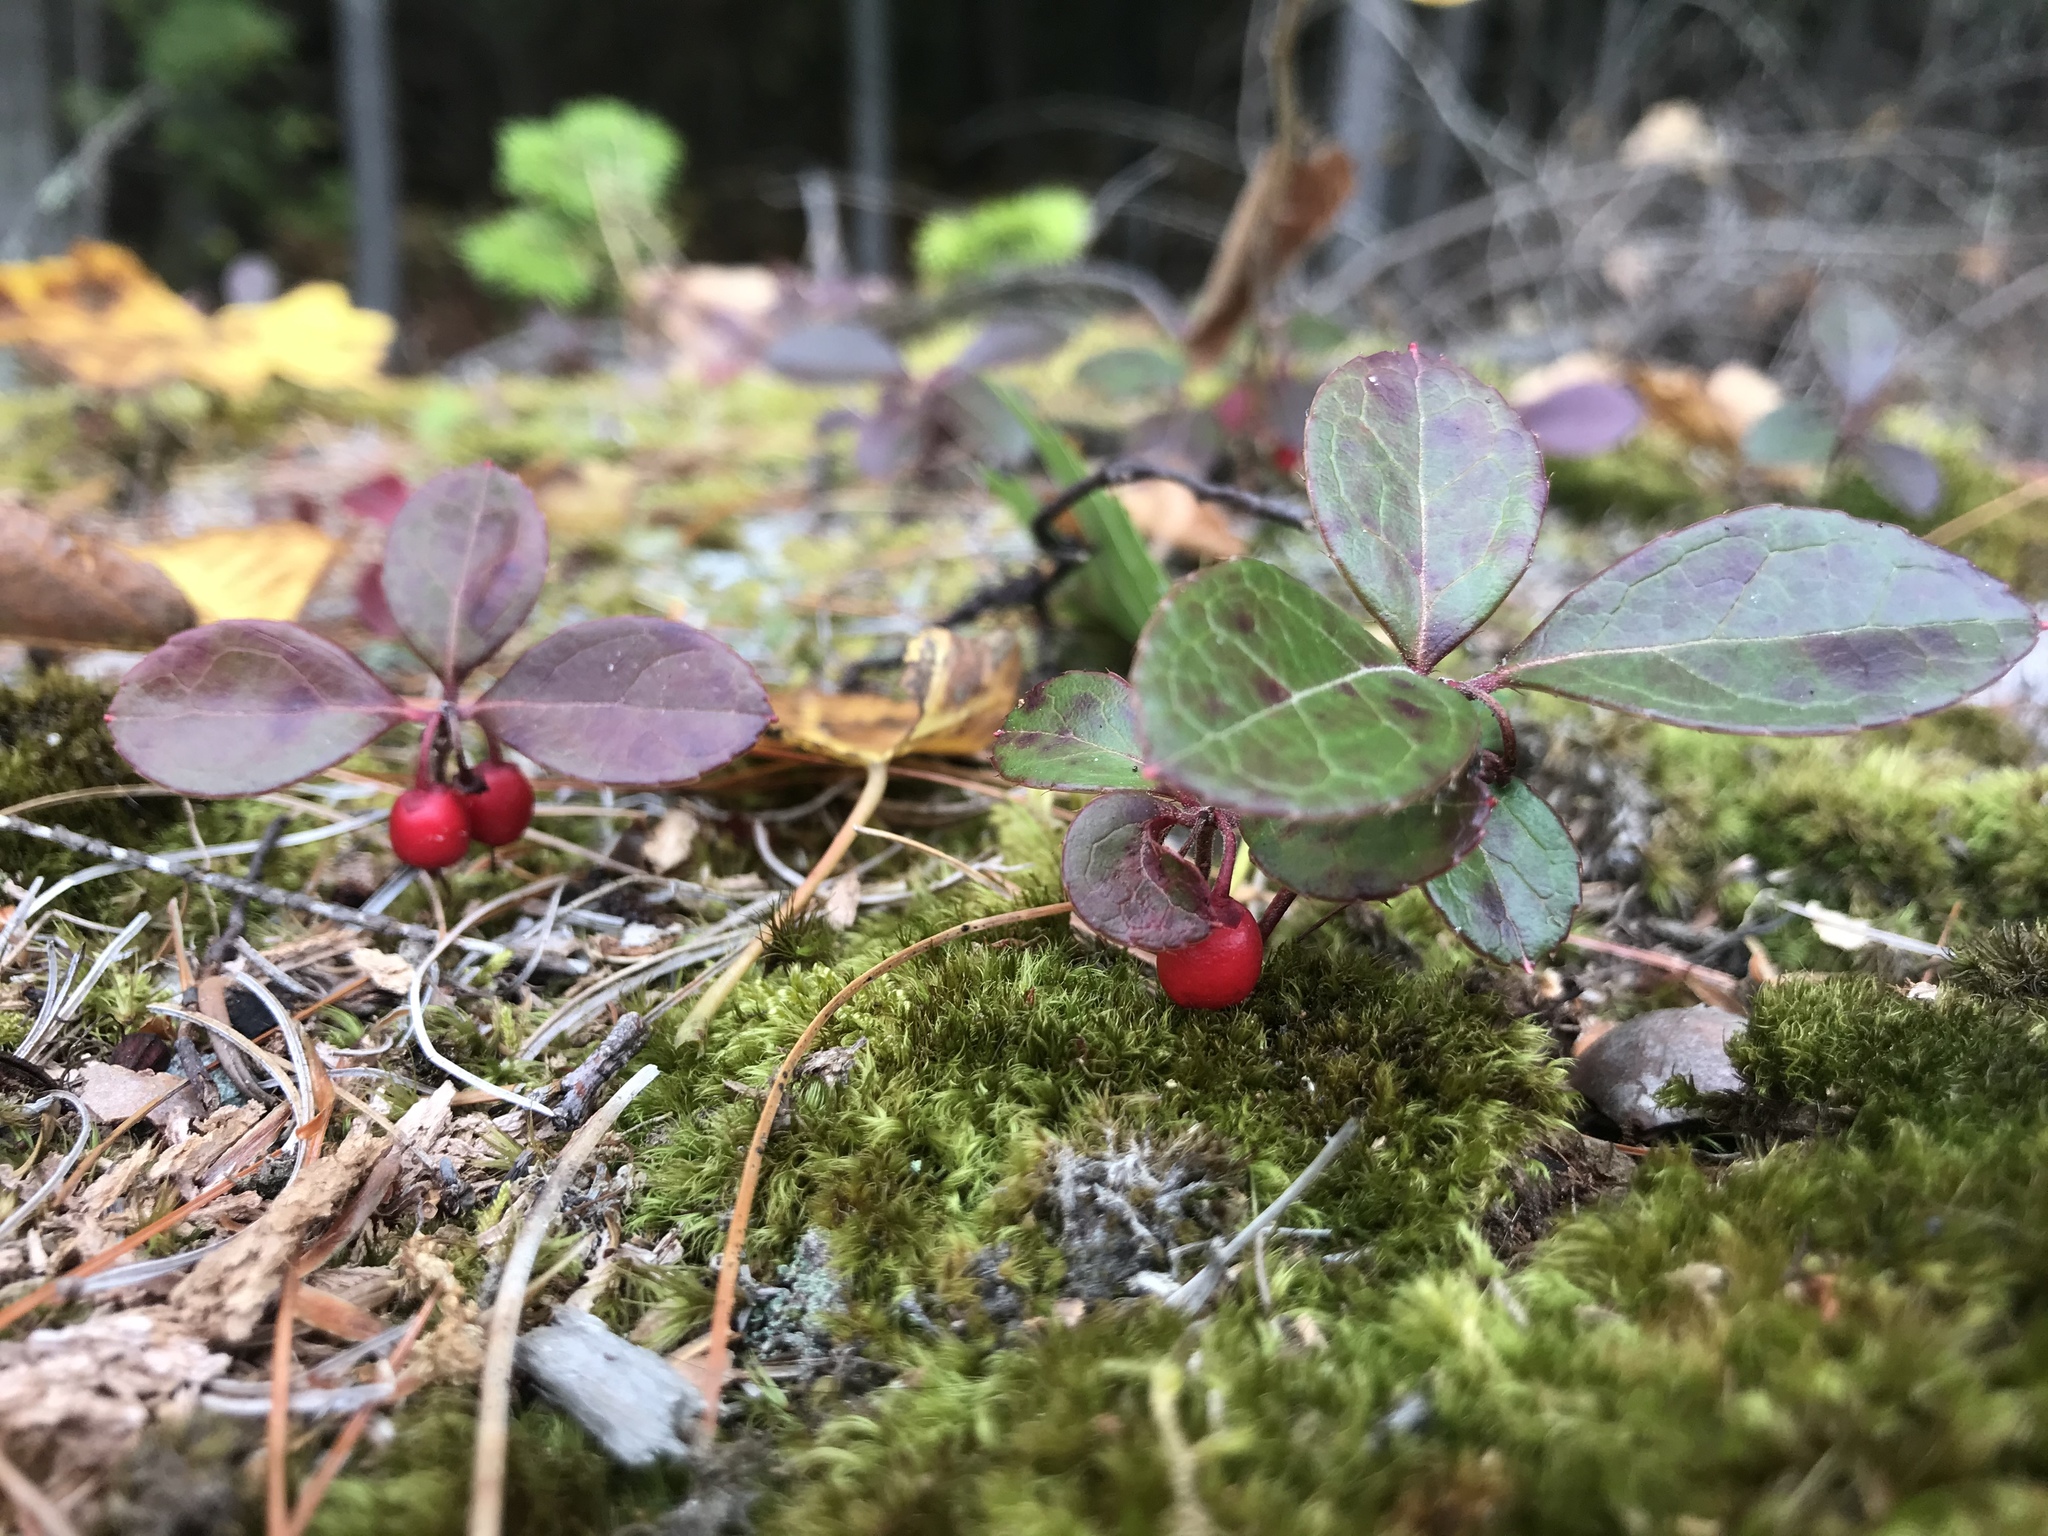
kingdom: Plantae
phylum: Tracheophyta
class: Magnoliopsida
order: Ericales
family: Ericaceae
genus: Gaultheria
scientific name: Gaultheria procumbens
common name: Checkerberry
